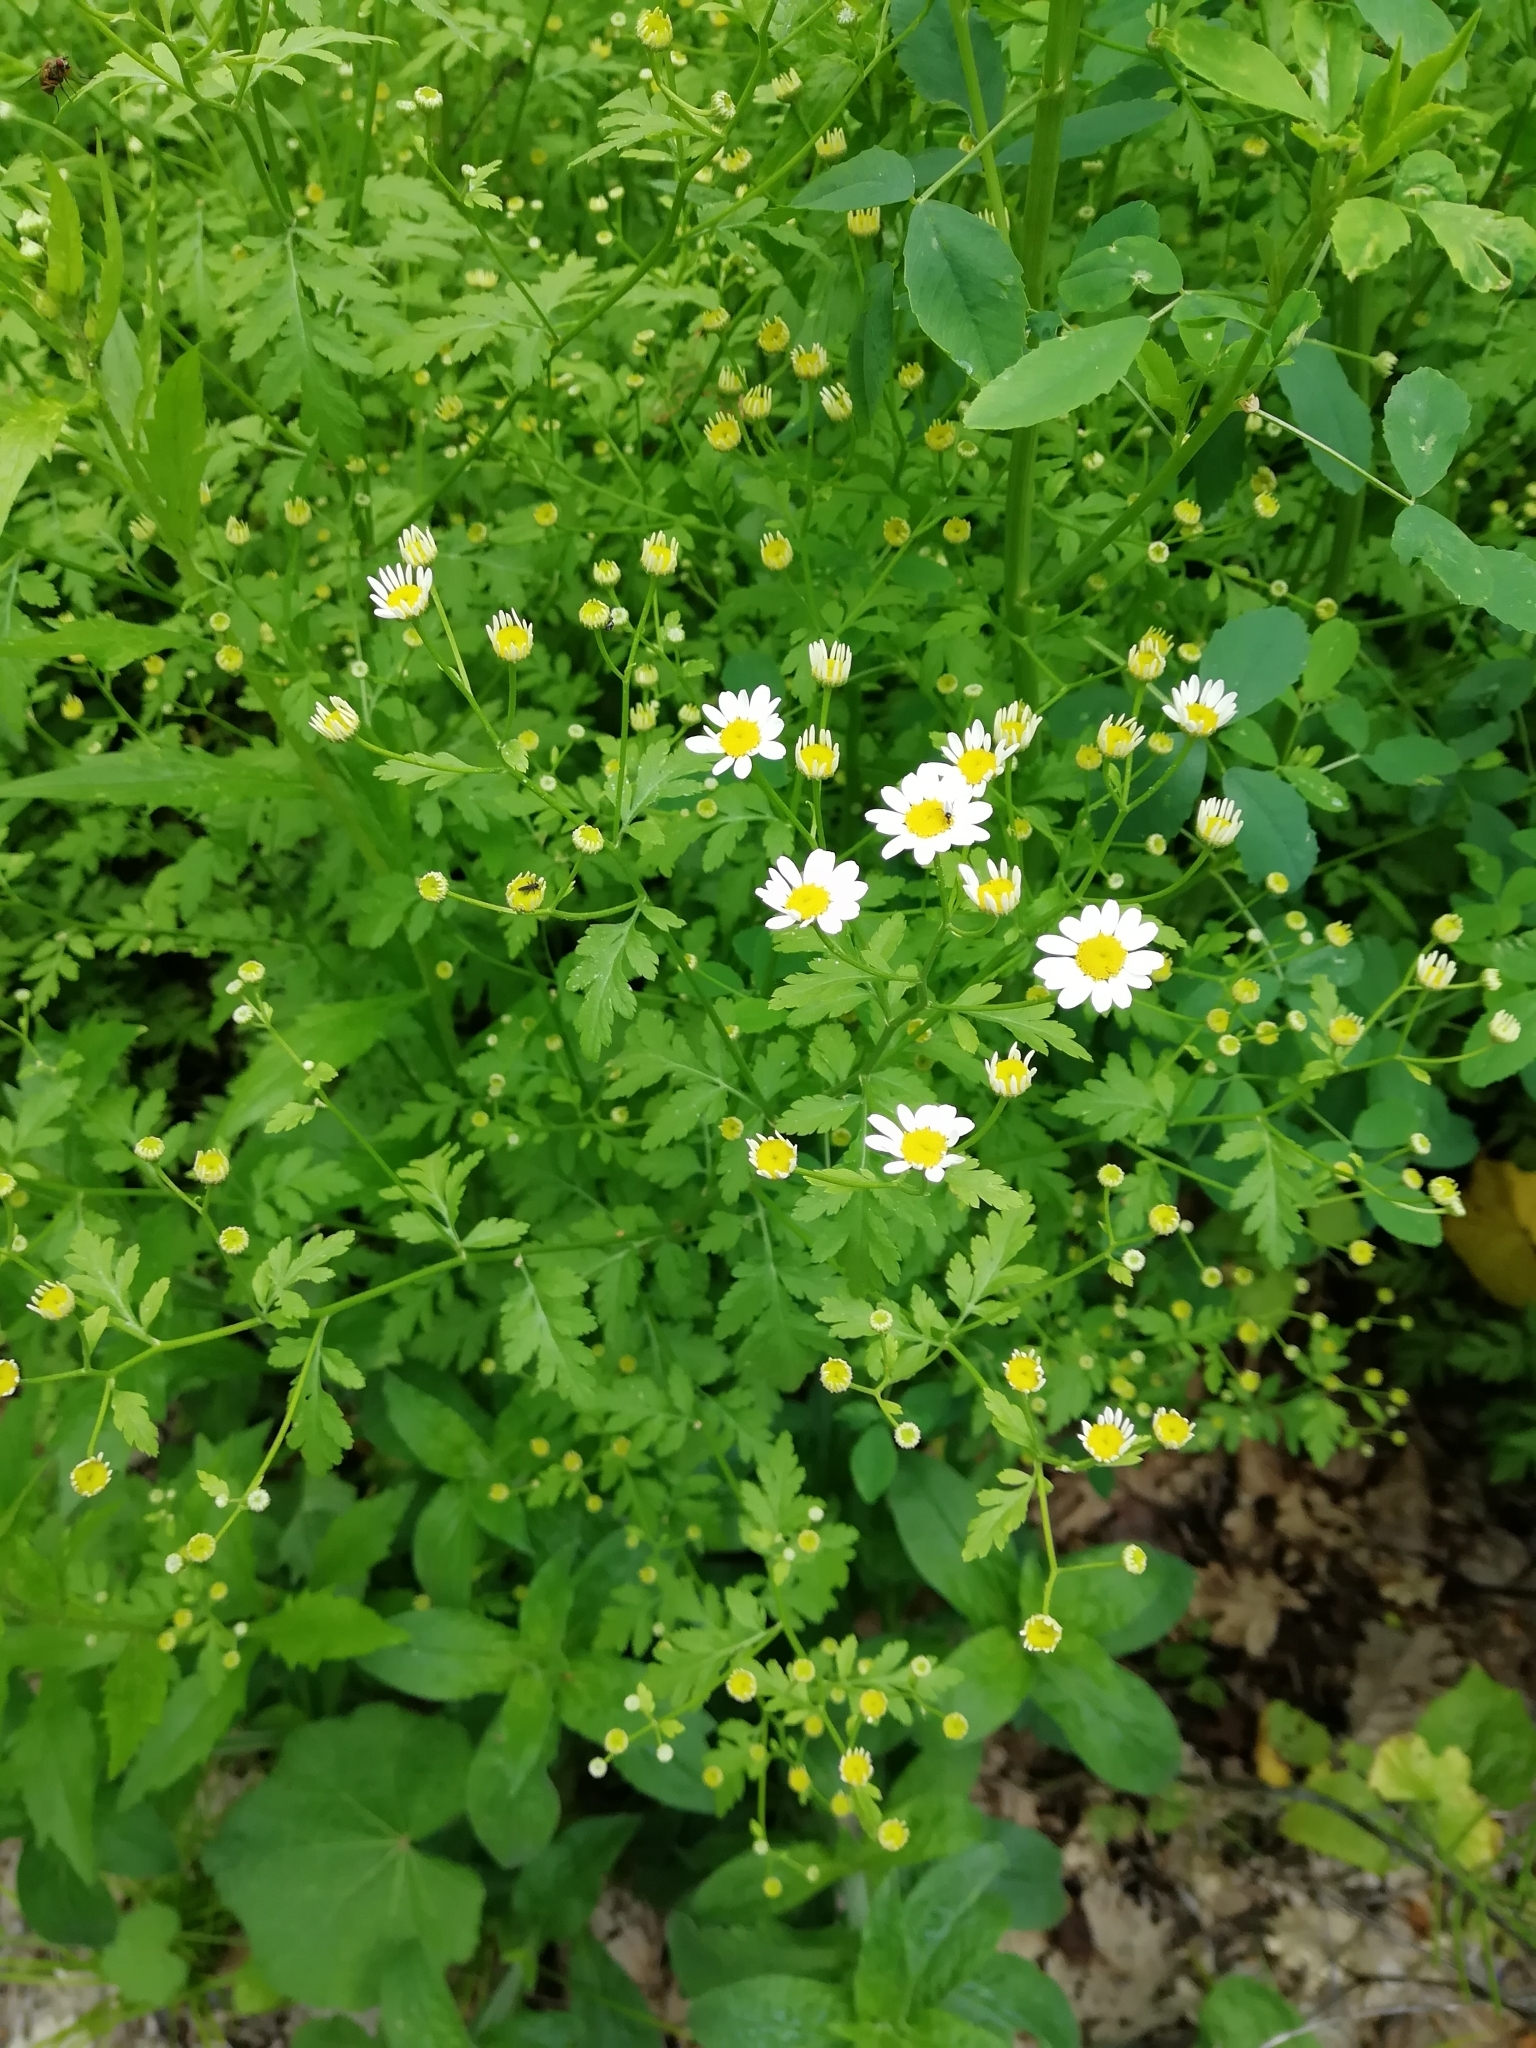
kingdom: Plantae
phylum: Tracheophyta
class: Magnoliopsida
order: Asterales
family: Asteraceae
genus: Tanacetum
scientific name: Tanacetum partheniifolium
